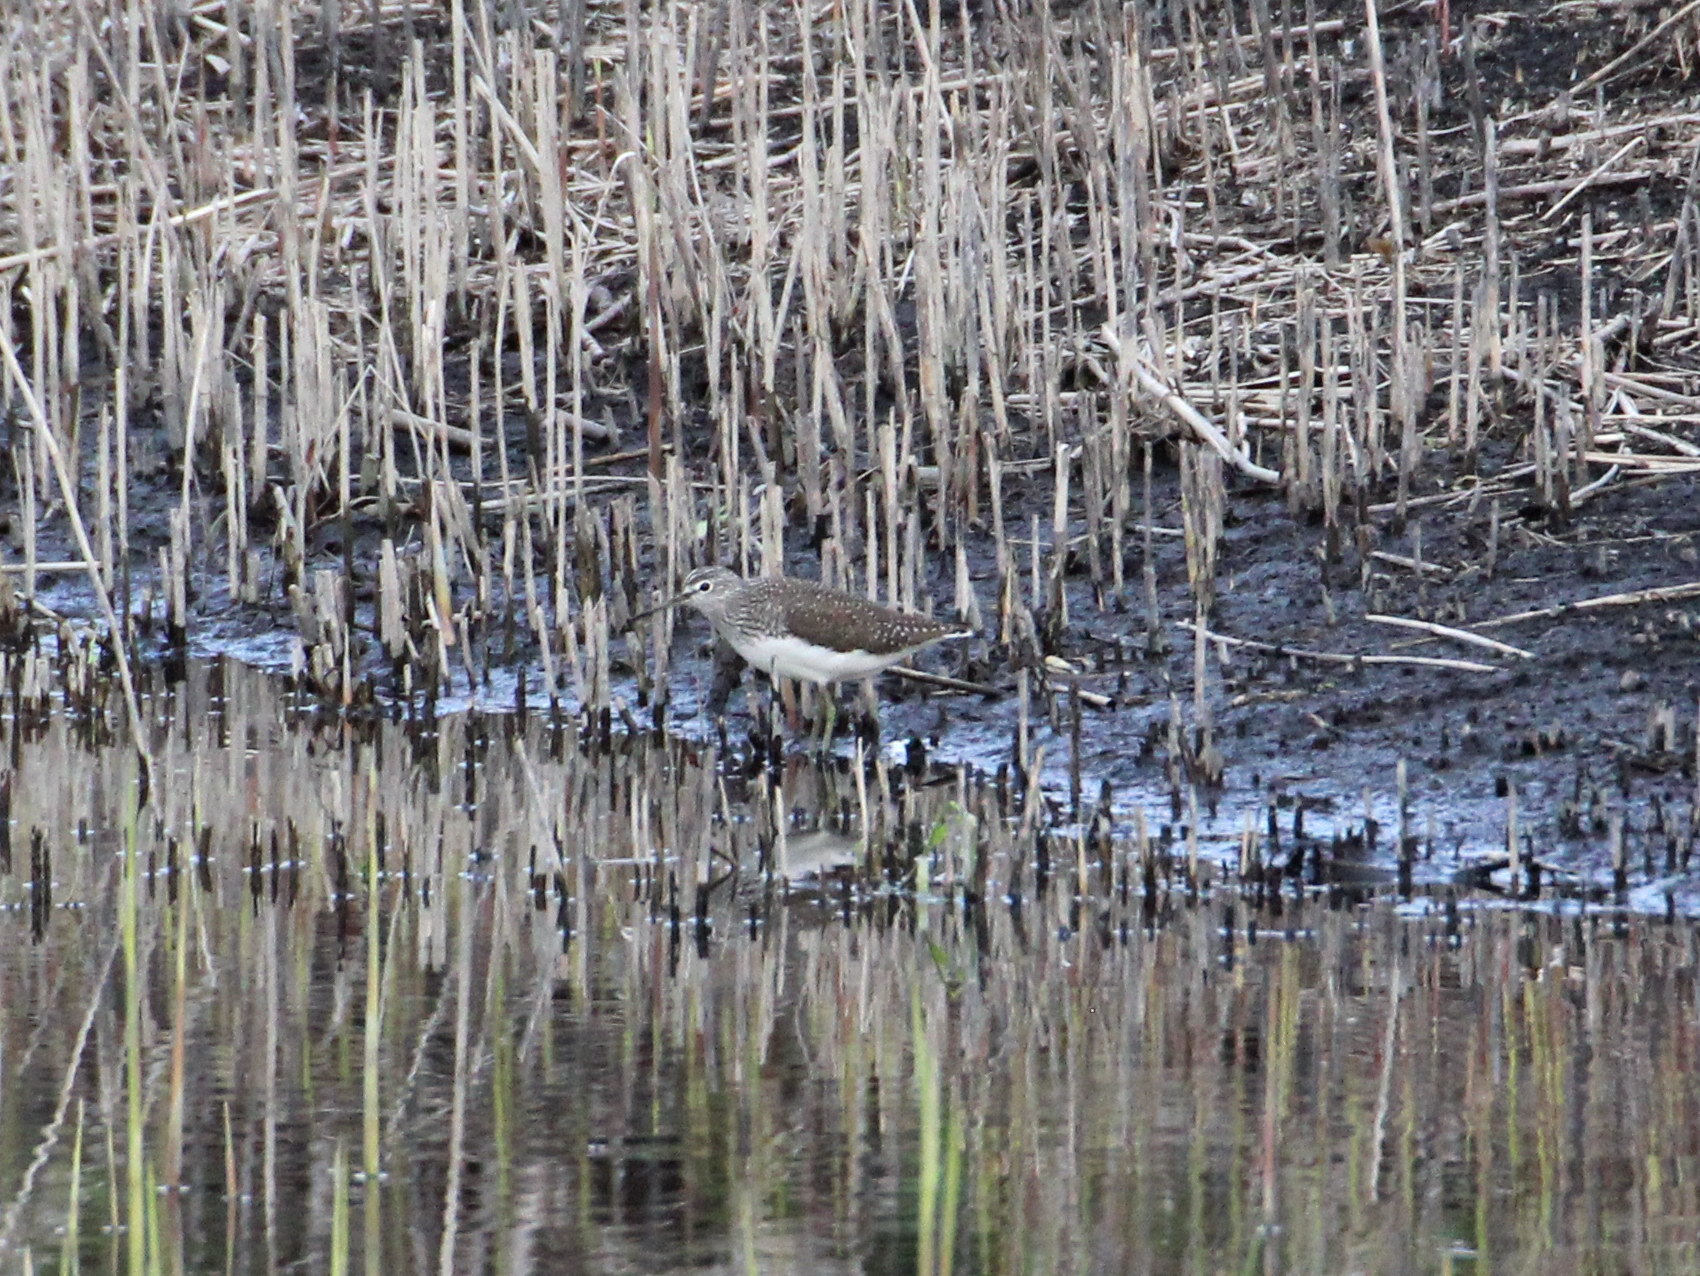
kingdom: Animalia
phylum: Chordata
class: Aves
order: Charadriiformes
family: Scolopacidae
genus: Tringa
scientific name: Tringa ochropus
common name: Green sandpiper
